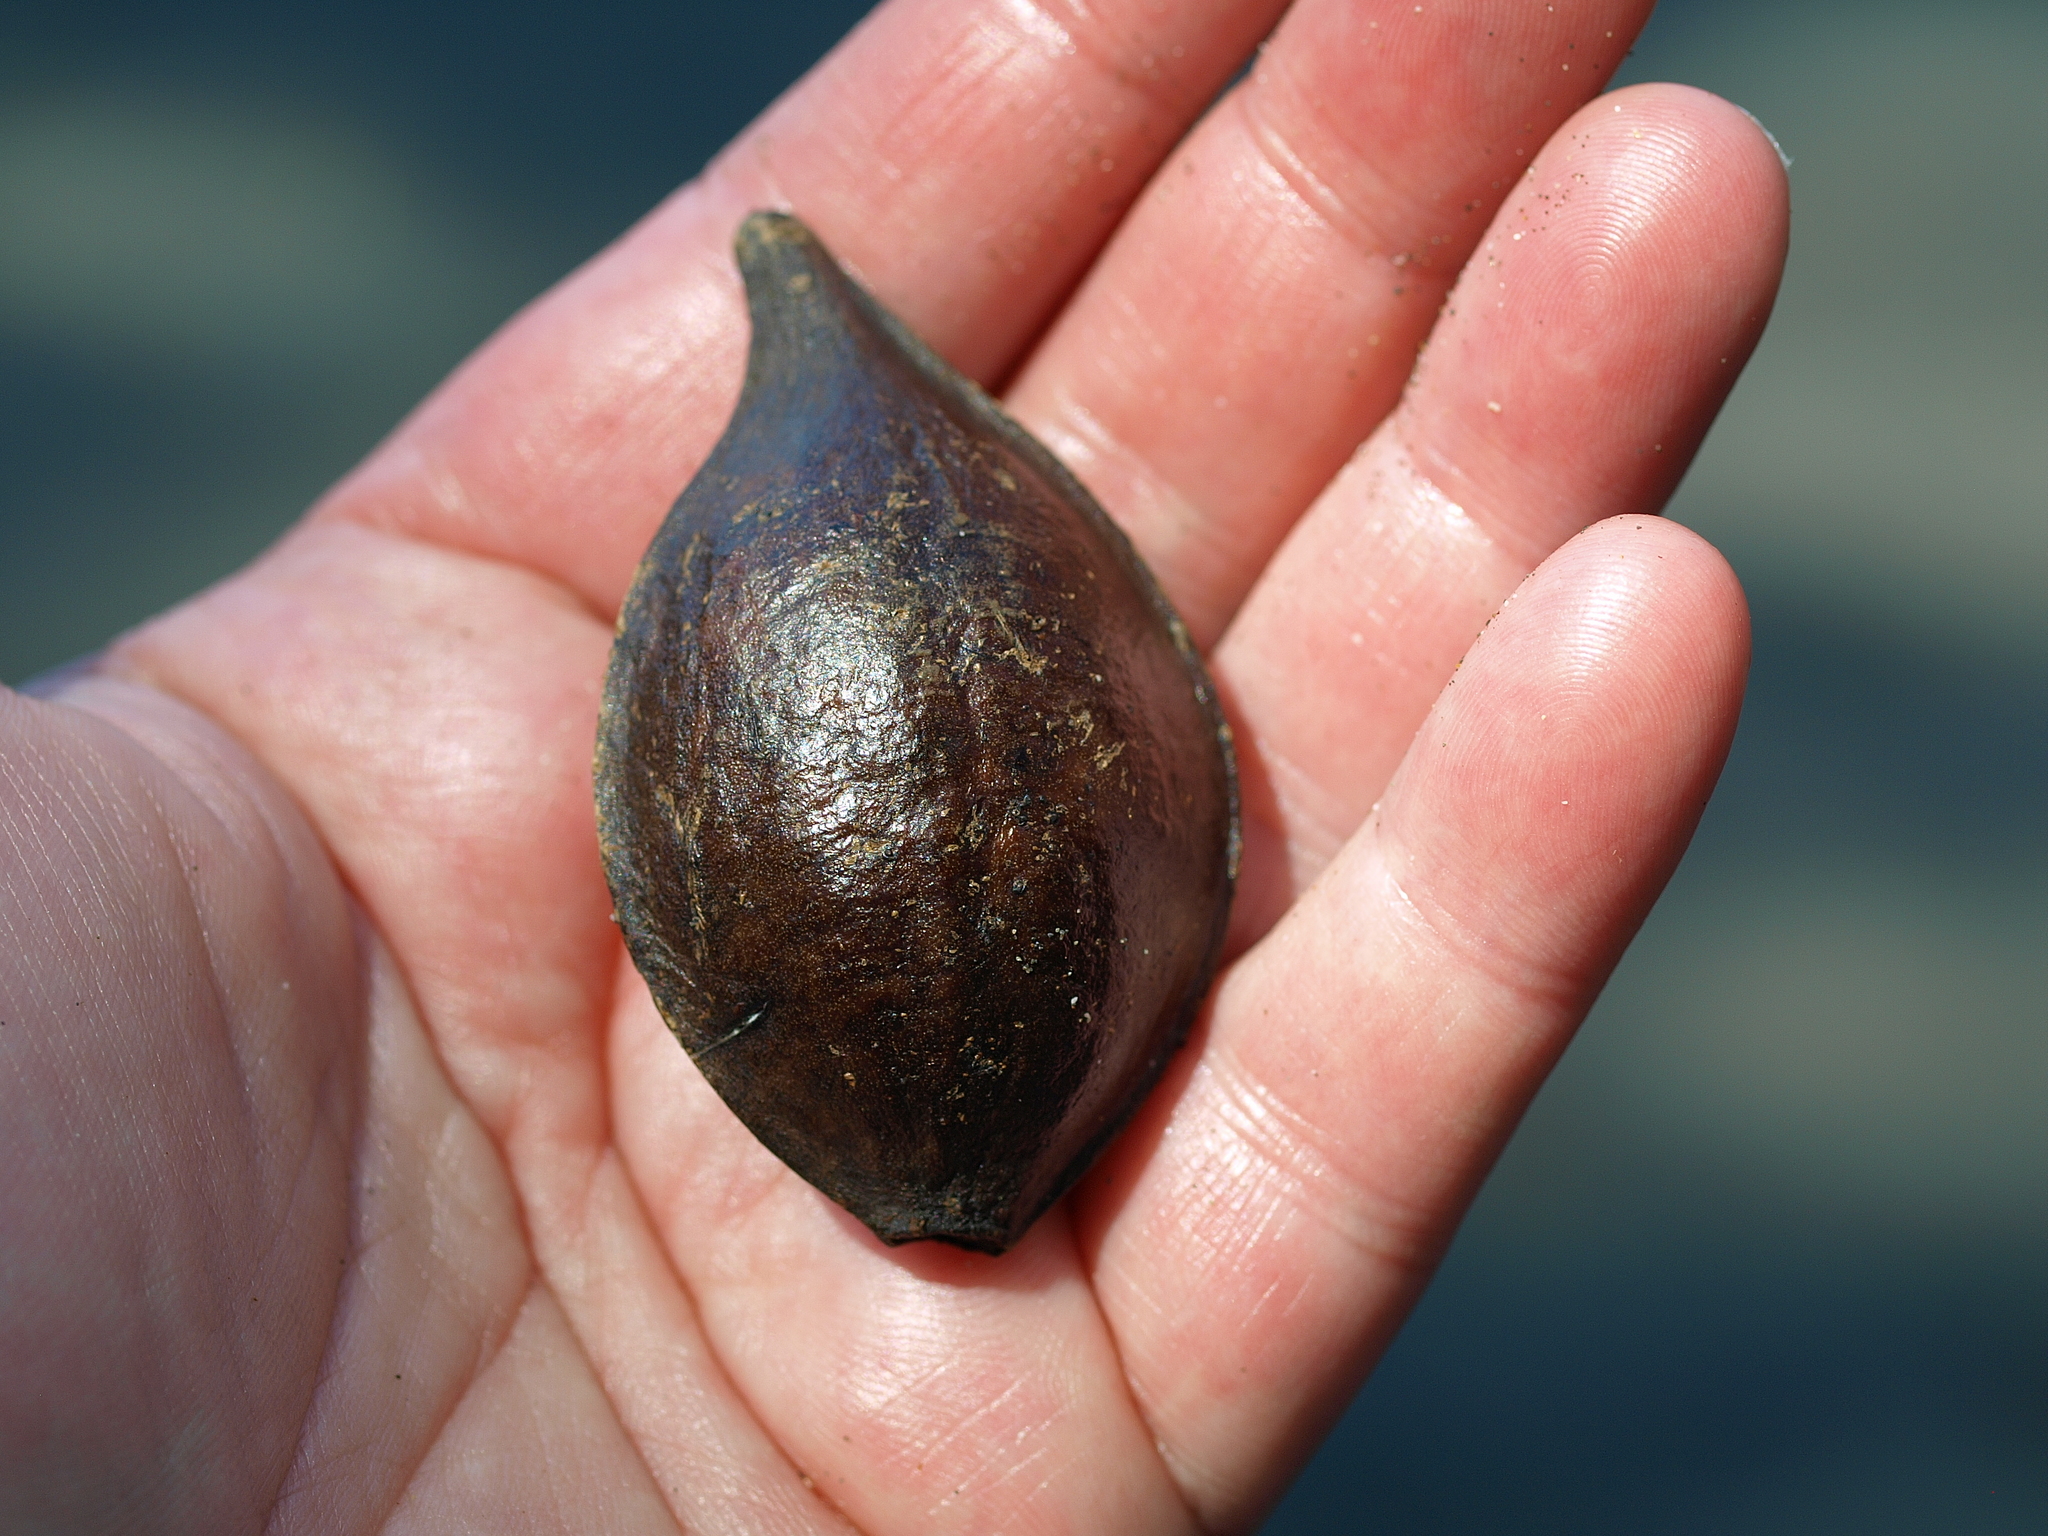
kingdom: Plantae
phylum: Tracheophyta
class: Magnoliopsida
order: Myrtales
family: Combretaceae
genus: Terminalia
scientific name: Terminalia catappa
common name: Tropical almond
